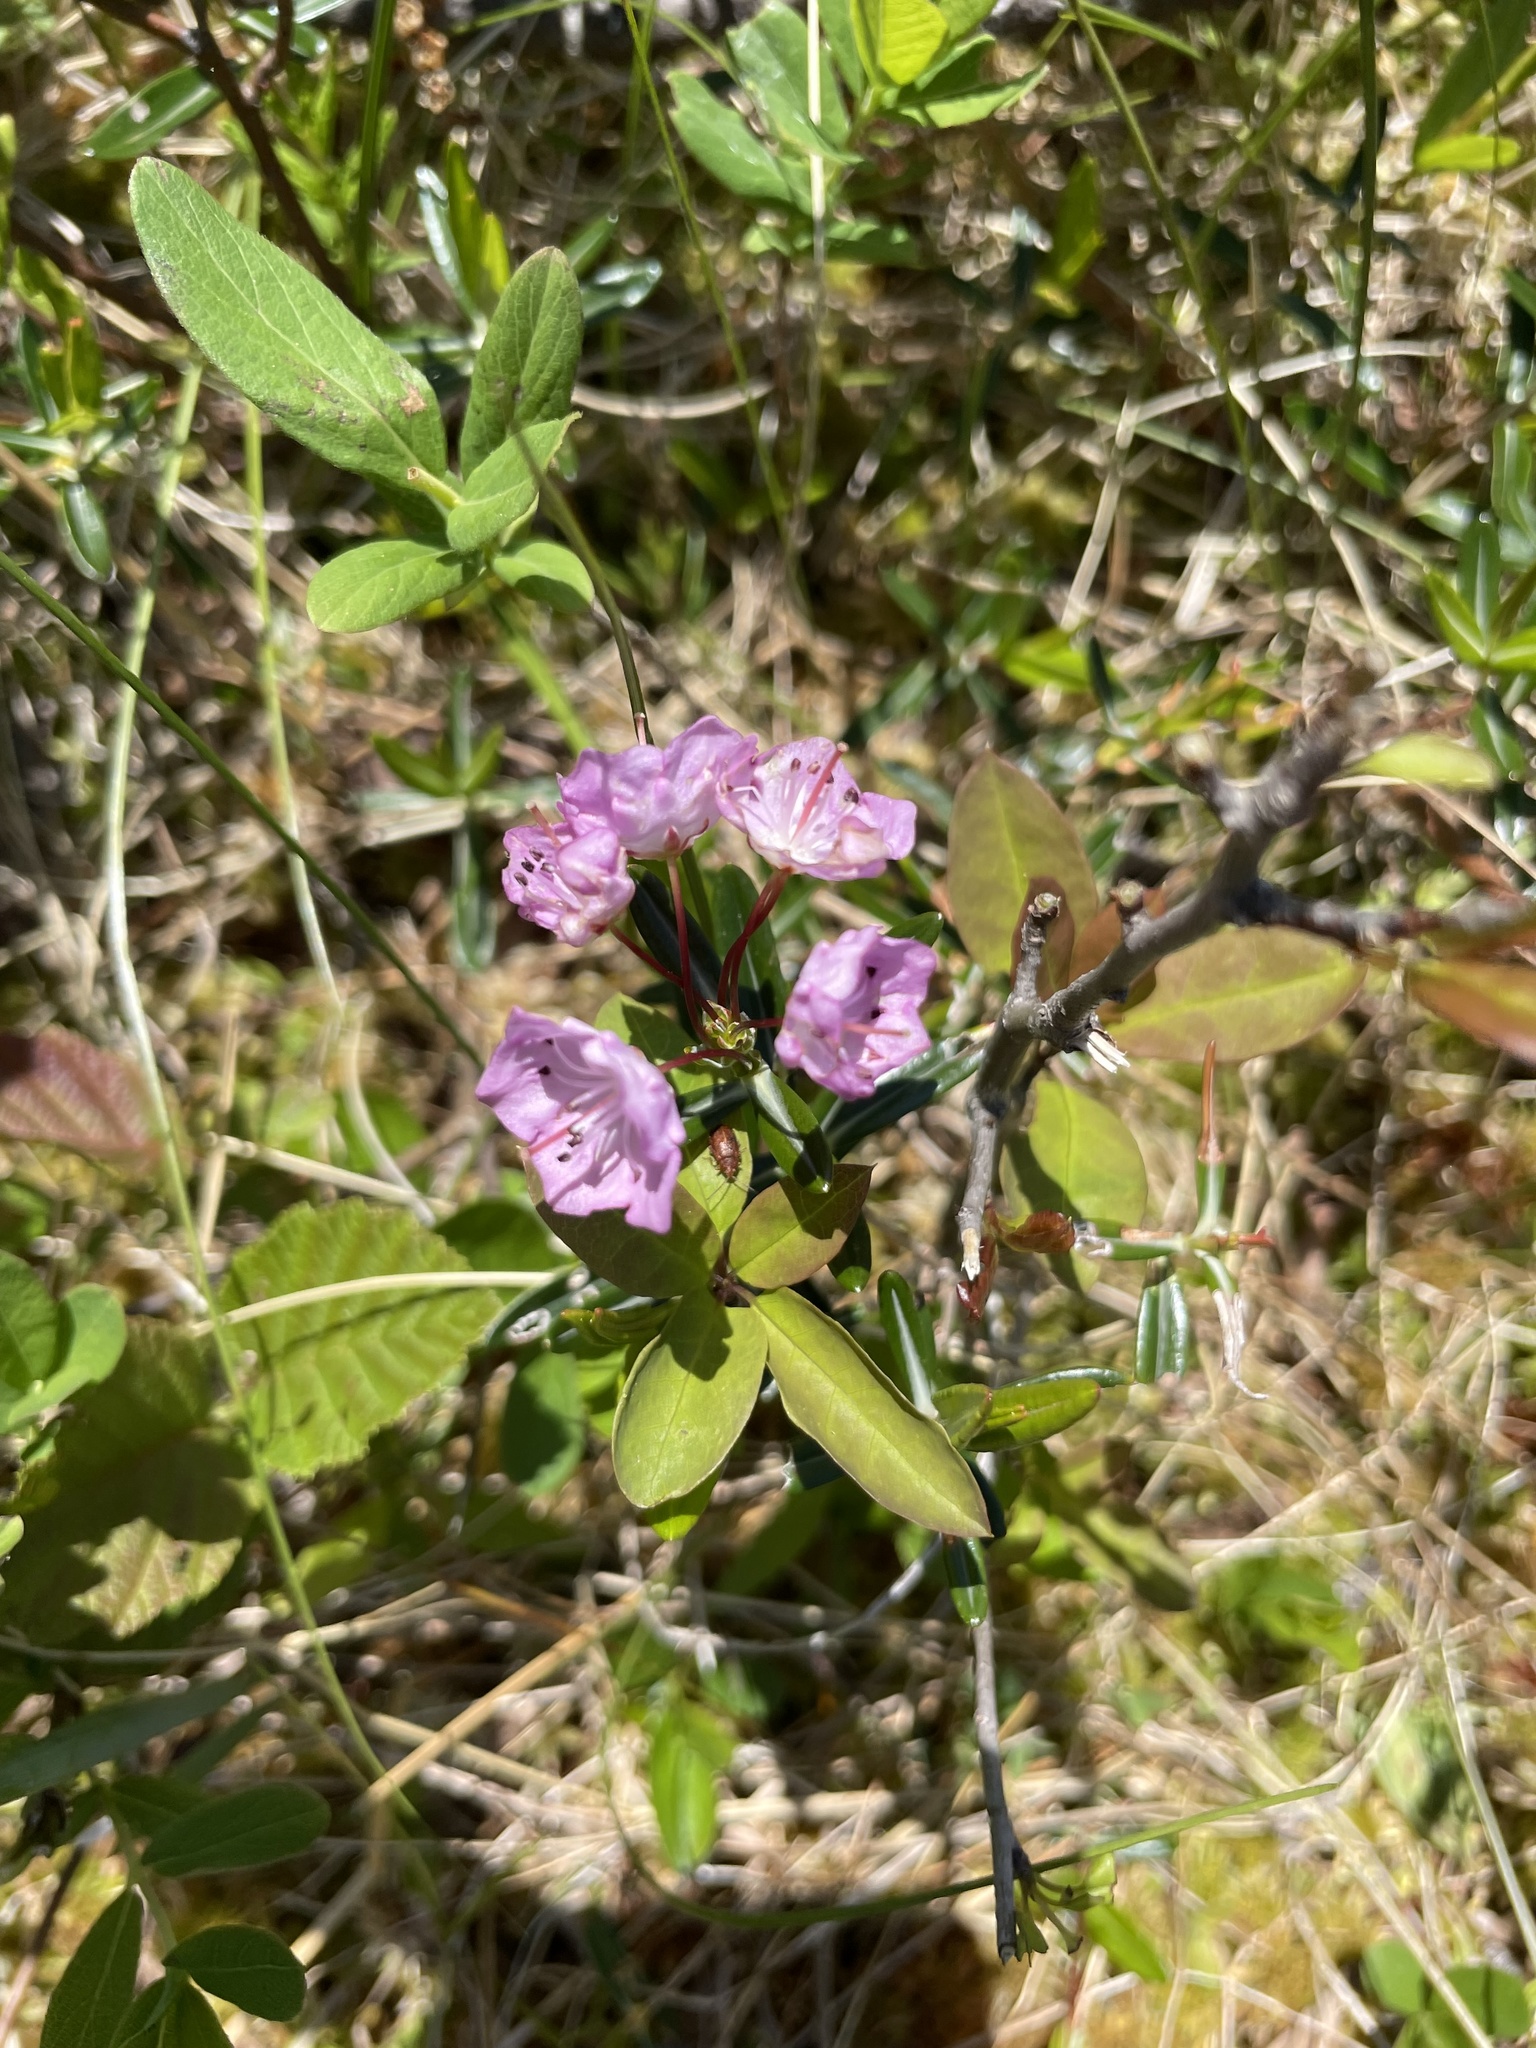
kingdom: Plantae
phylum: Tracheophyta
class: Magnoliopsida
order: Ericales
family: Ericaceae
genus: Kalmia
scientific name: Kalmia polifolia
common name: Bog-laurel
